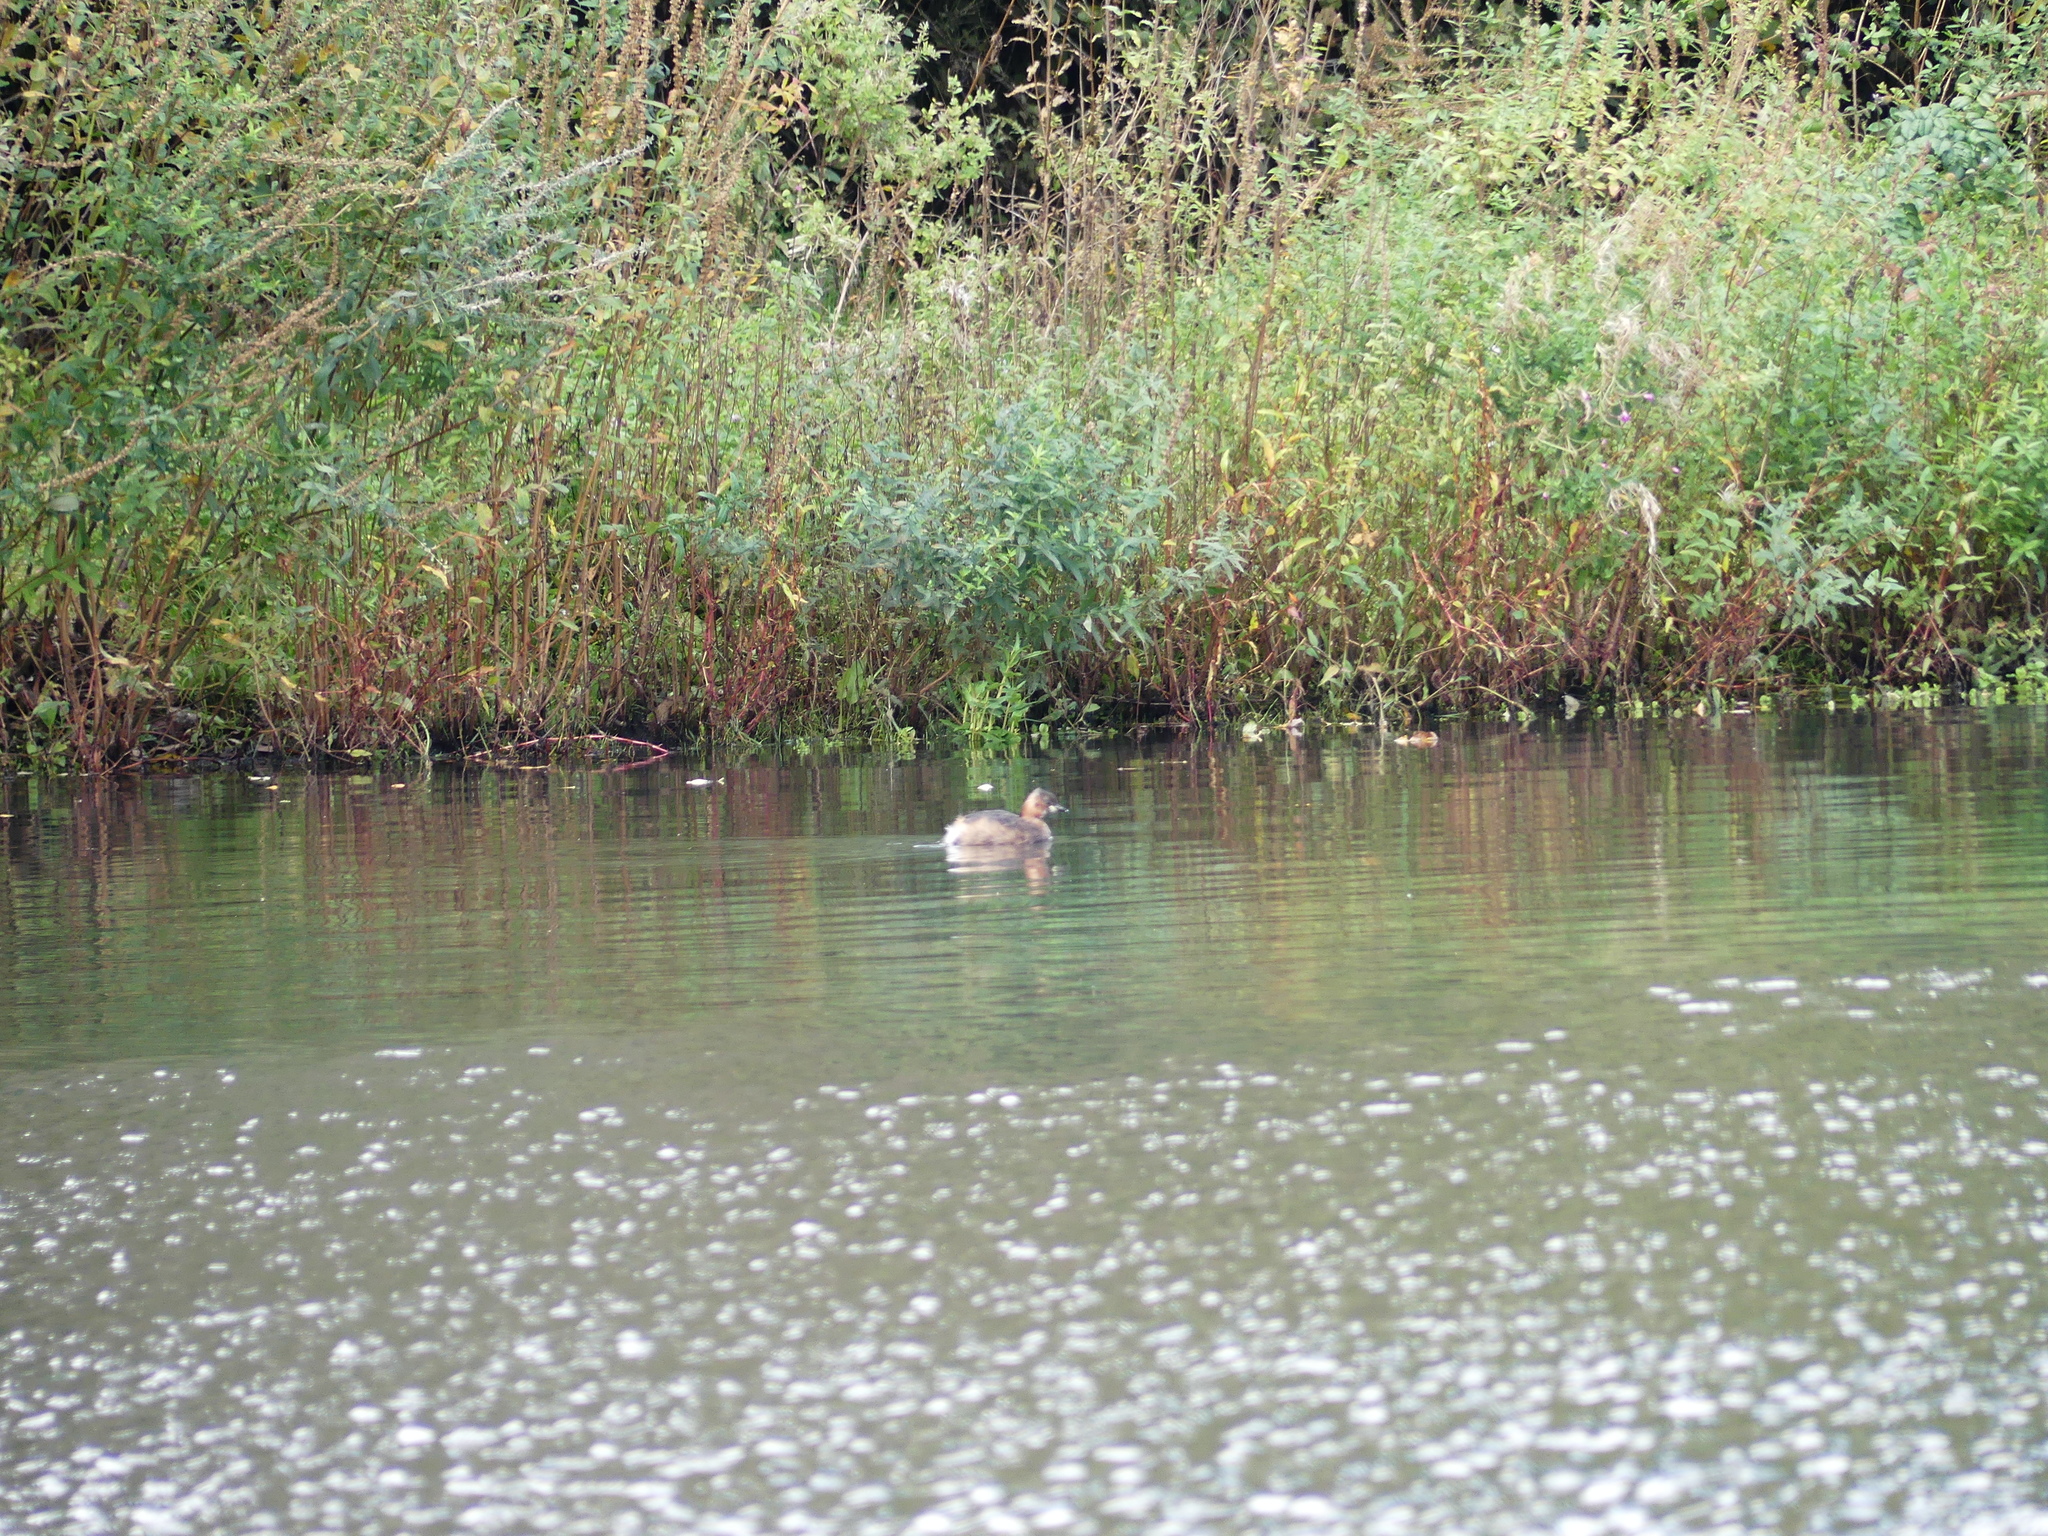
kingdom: Animalia
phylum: Chordata
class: Aves
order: Podicipediformes
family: Podicipedidae
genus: Tachybaptus
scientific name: Tachybaptus ruficollis
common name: Little grebe
